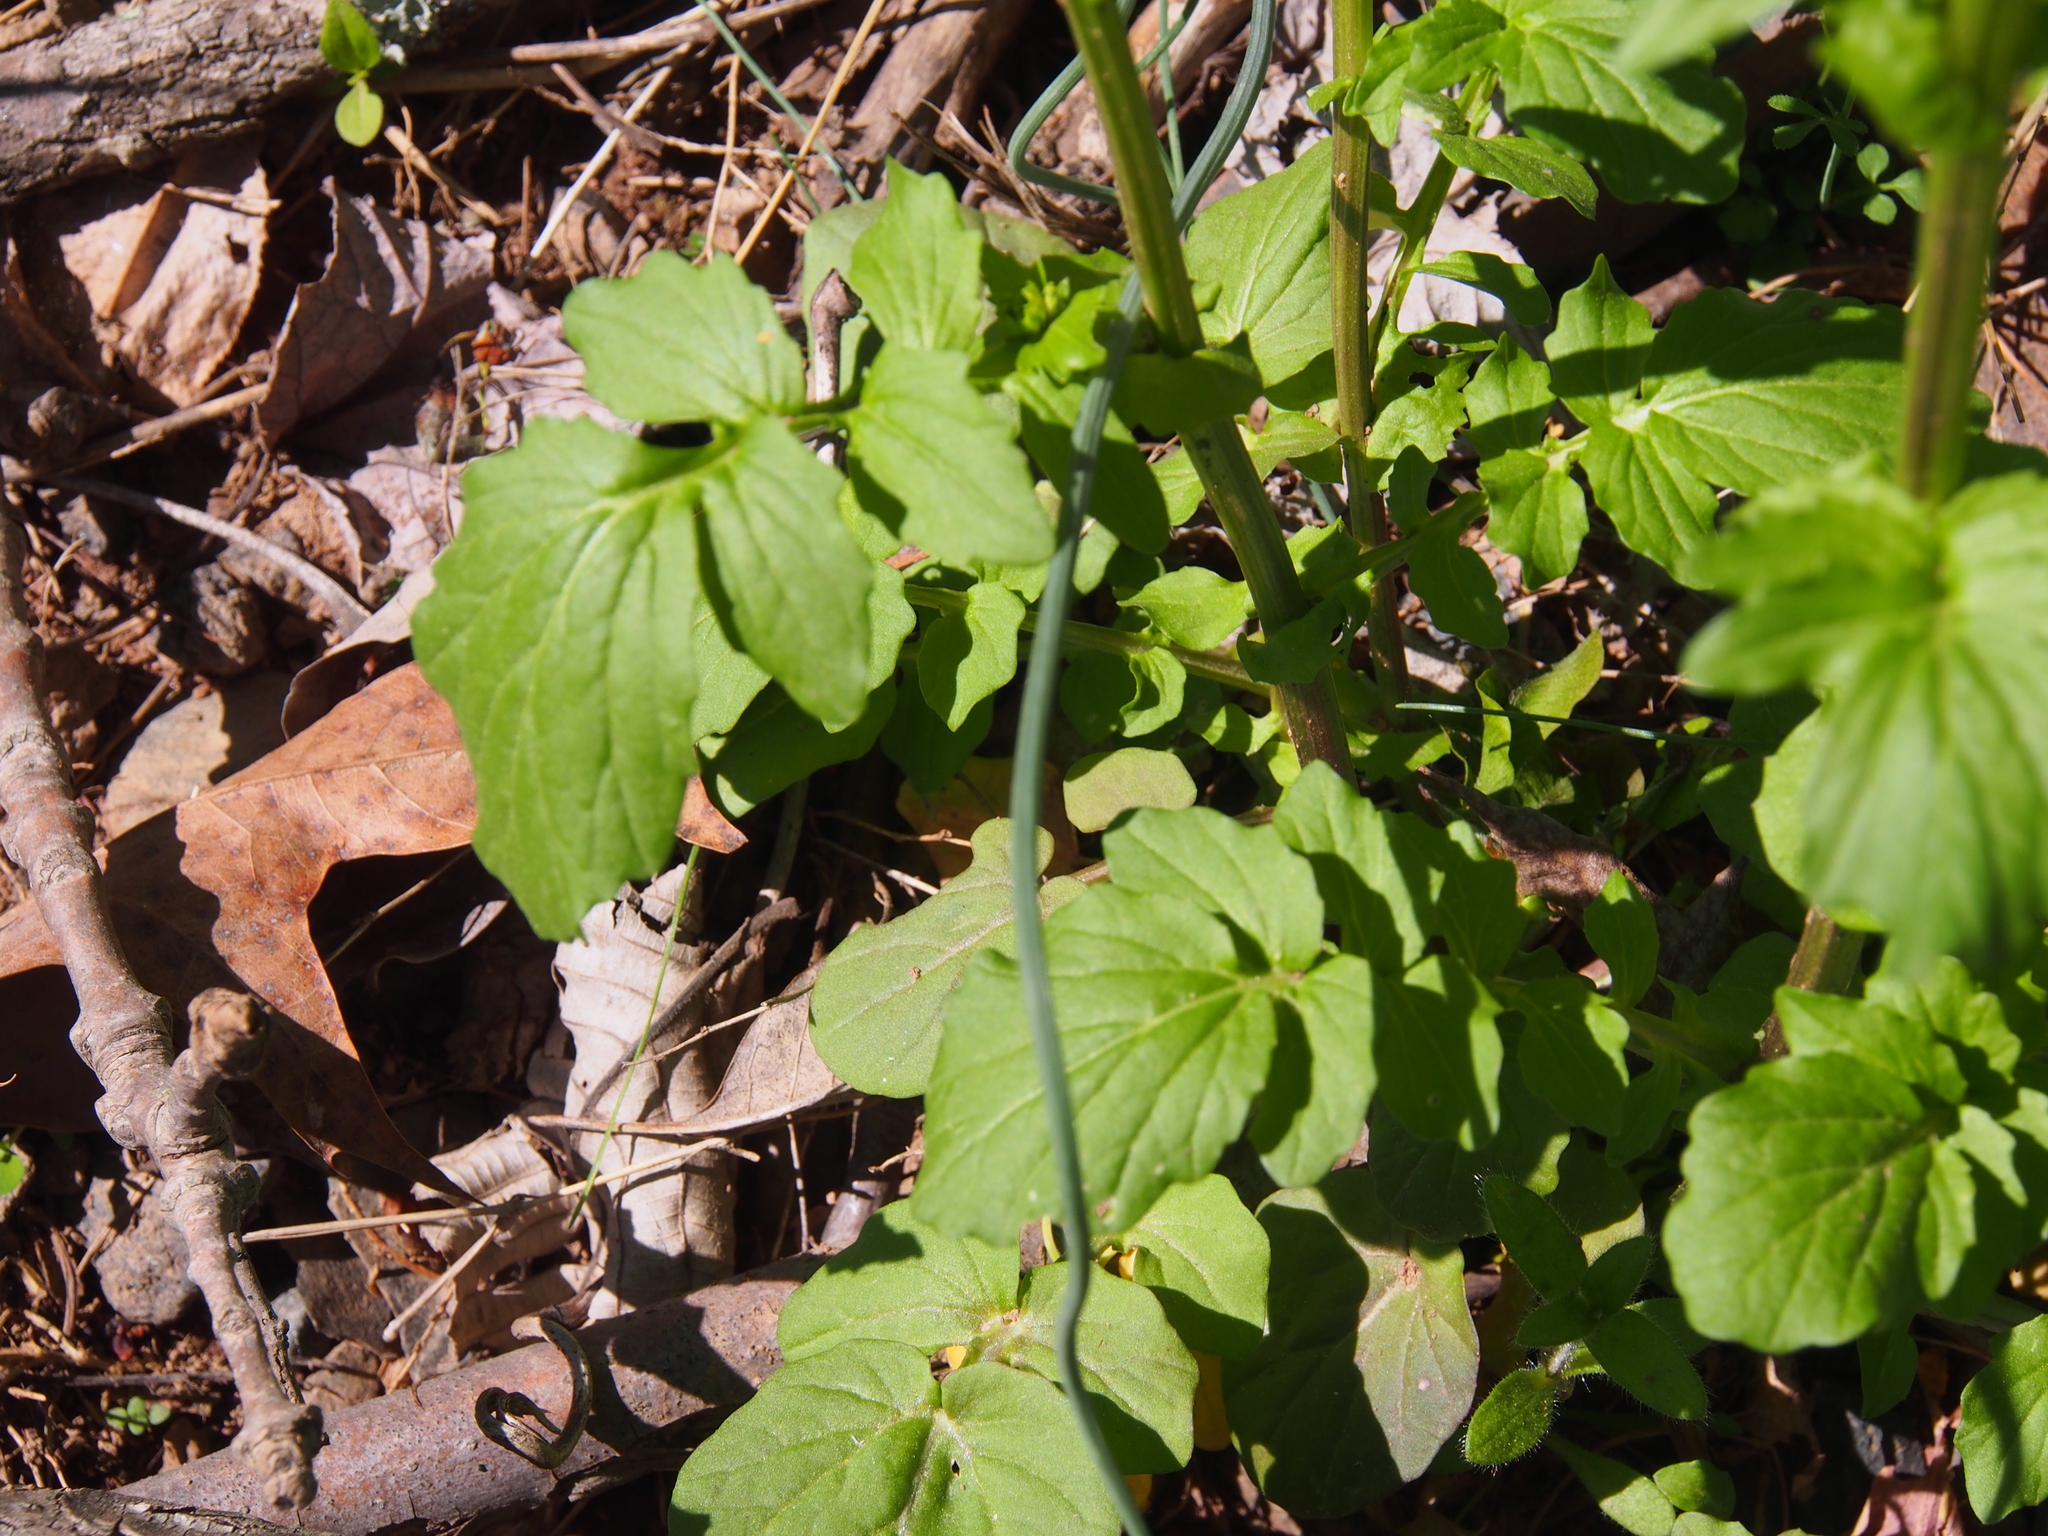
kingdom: Plantae
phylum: Tracheophyta
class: Magnoliopsida
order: Brassicales
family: Brassicaceae
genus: Barbarea
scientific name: Barbarea vulgaris
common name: Cressy-greens
